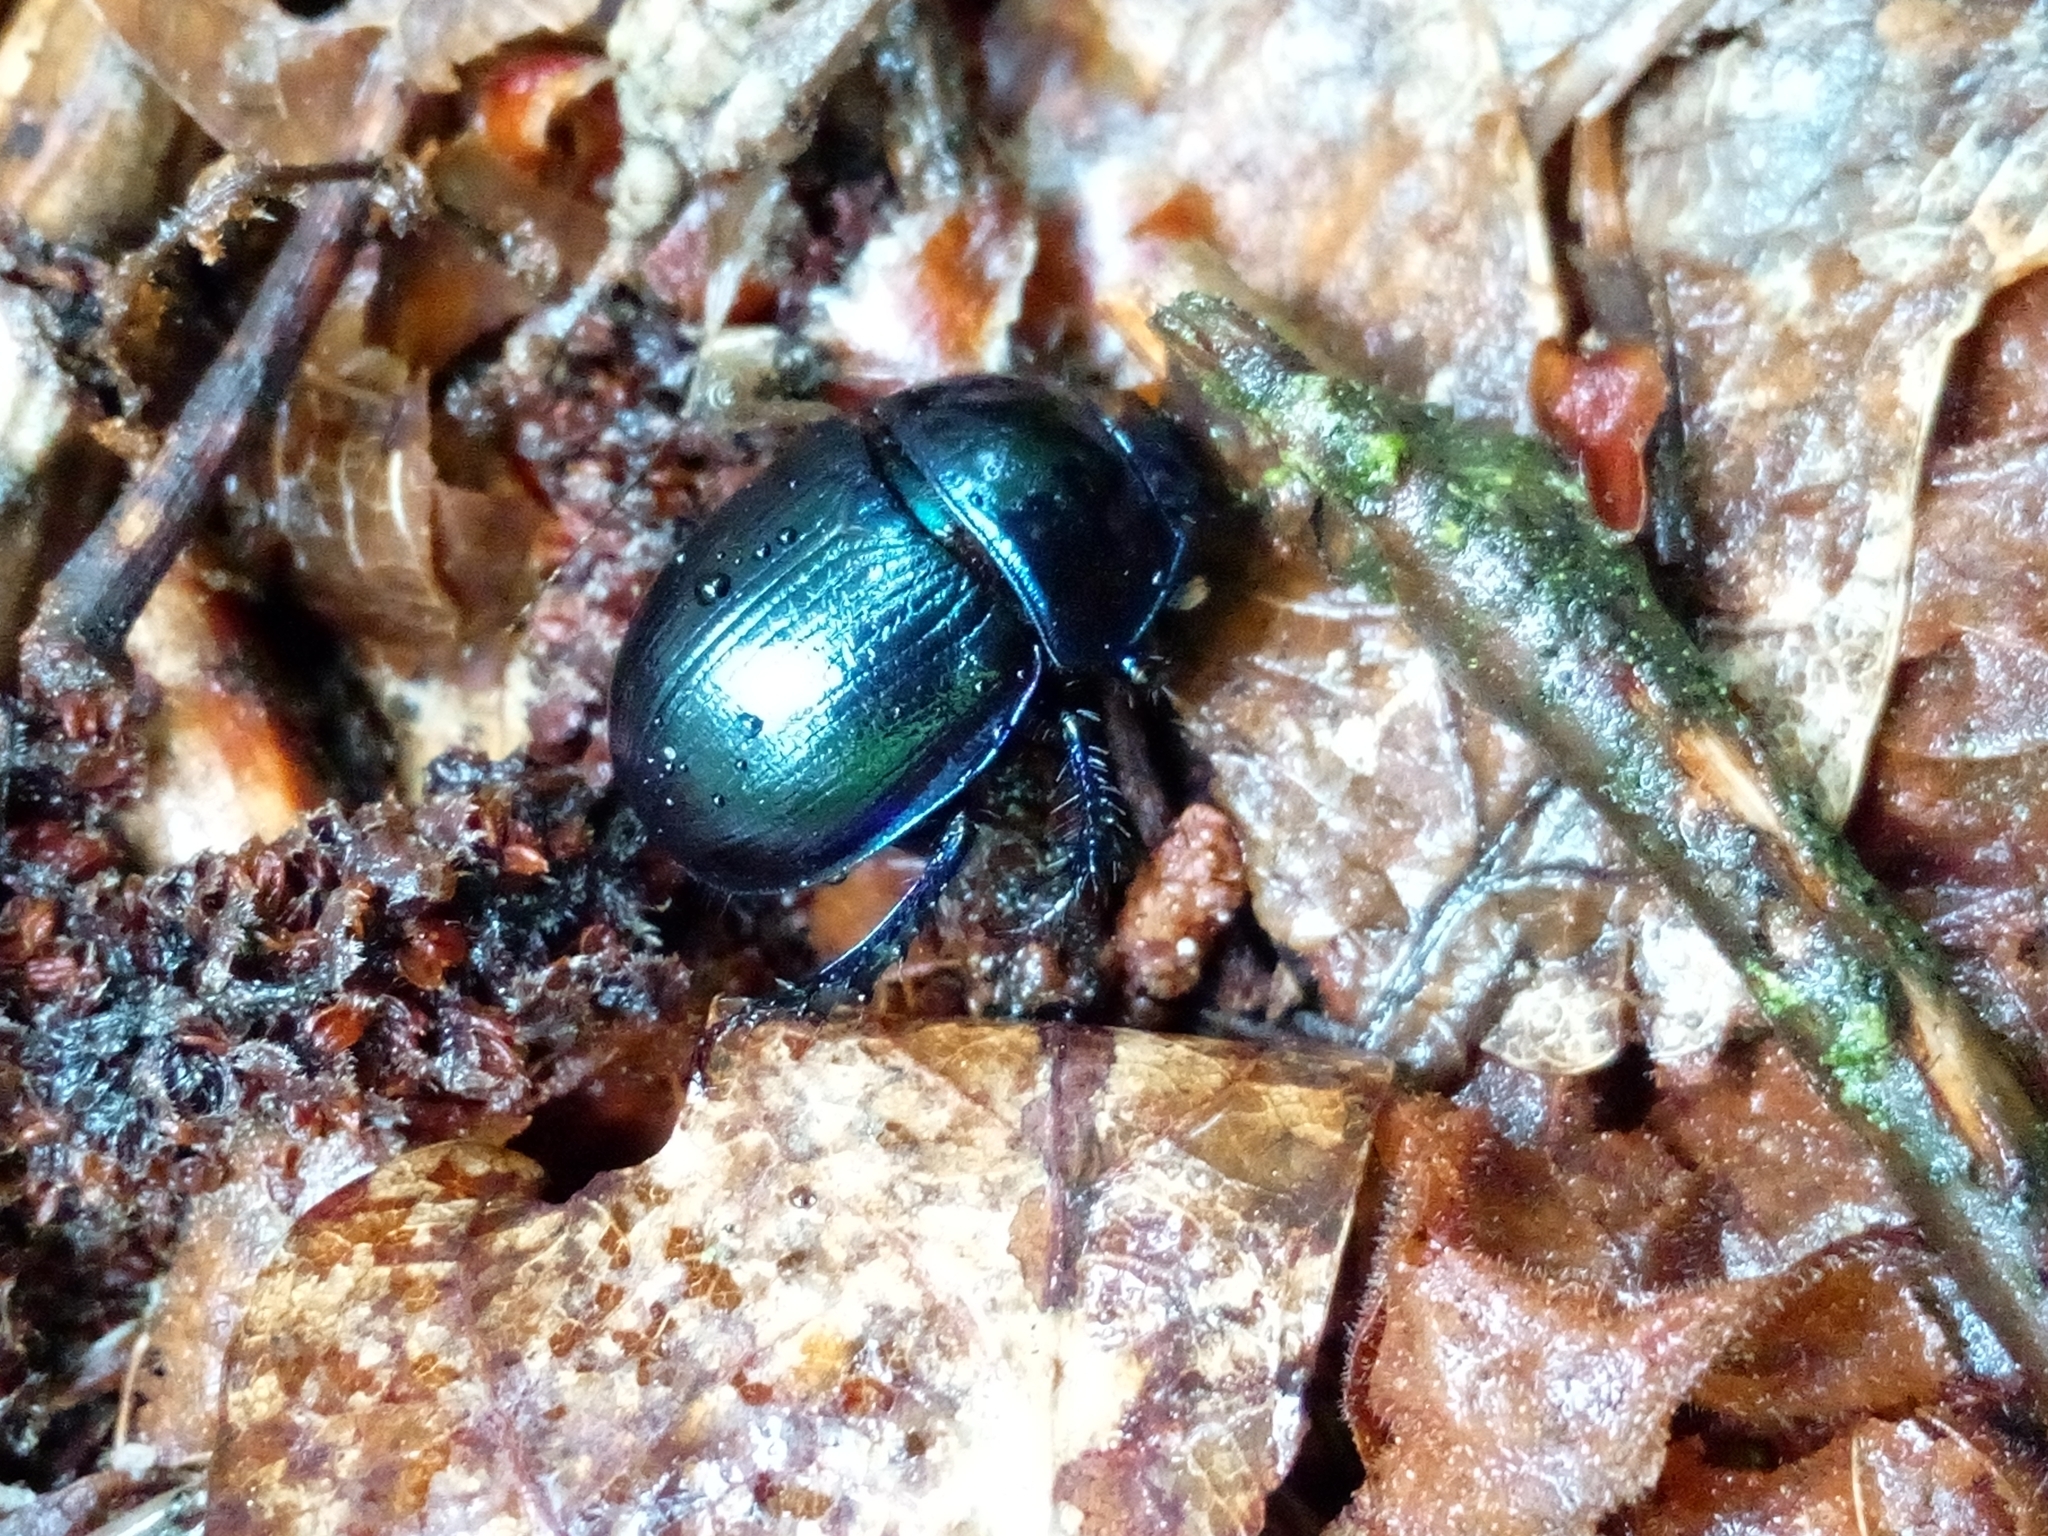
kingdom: Animalia
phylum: Arthropoda
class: Insecta
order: Coleoptera
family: Geotrupidae
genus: Anoplotrupes
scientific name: Anoplotrupes stercorosus
